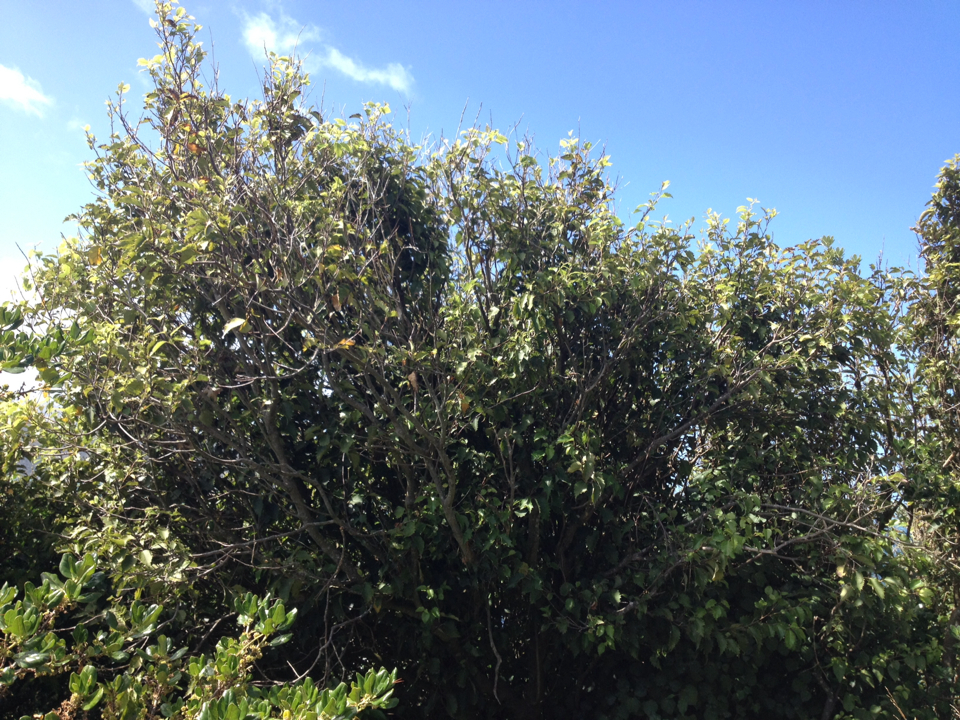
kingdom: Plantae
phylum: Tracheophyta
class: Magnoliopsida
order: Malvales
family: Malvaceae
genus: Hoheria
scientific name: Hoheria populnea
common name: Lacebark
